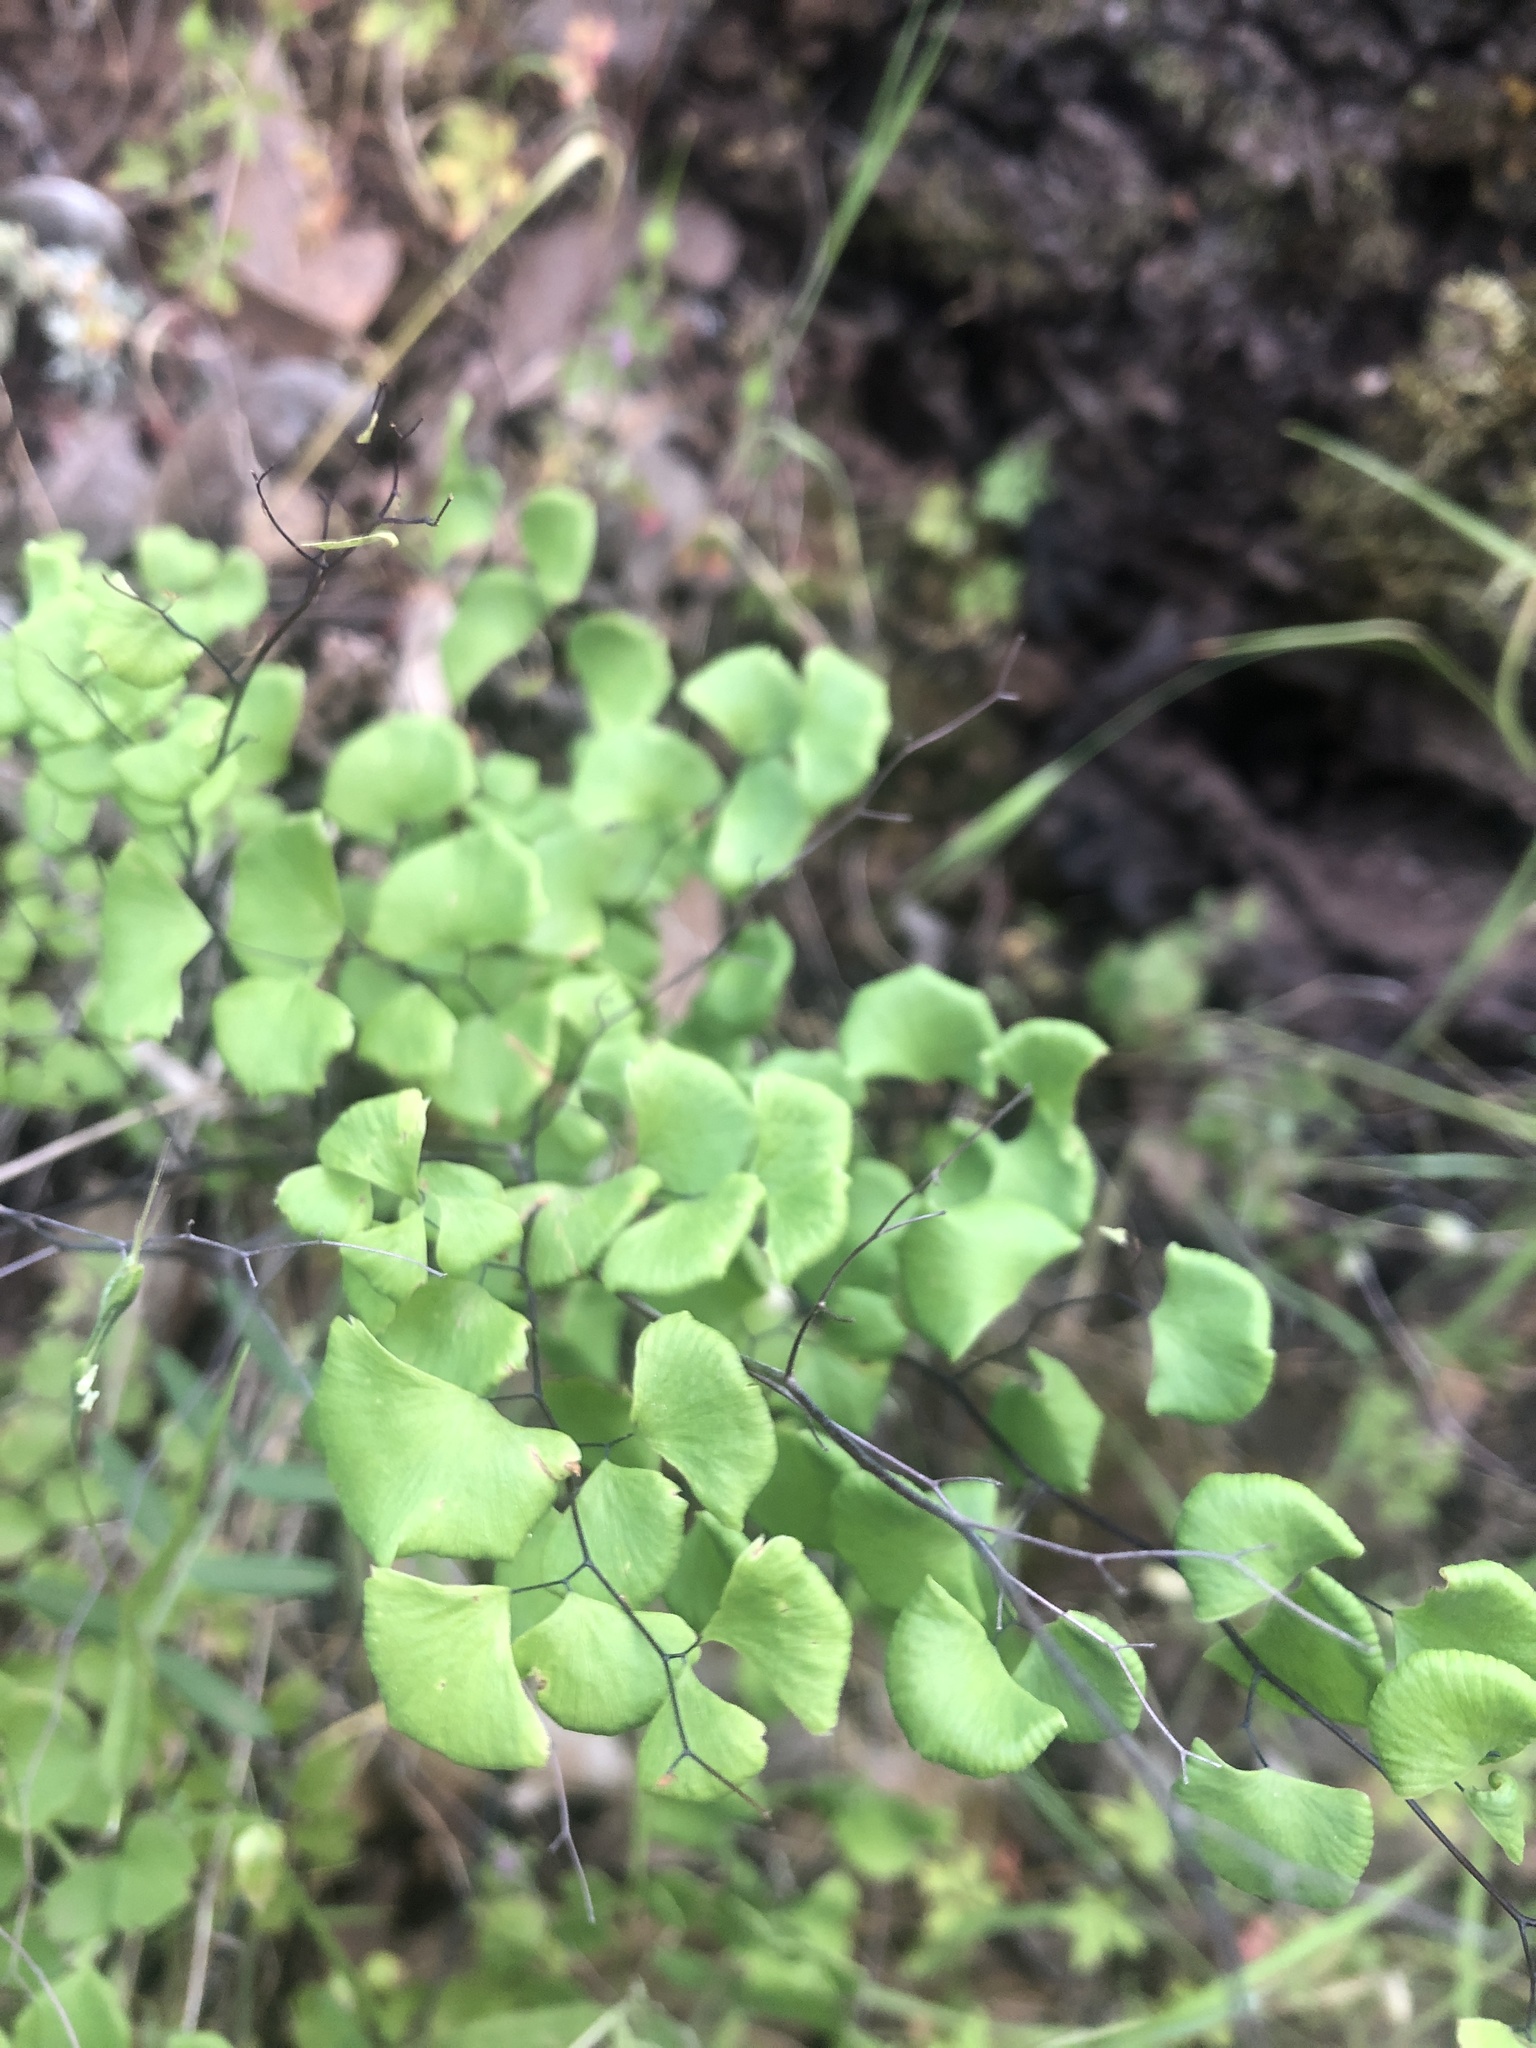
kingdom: Plantae
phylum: Tracheophyta
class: Polypodiopsida
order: Polypodiales
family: Pteridaceae
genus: Adiantum
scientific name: Adiantum jordanii
